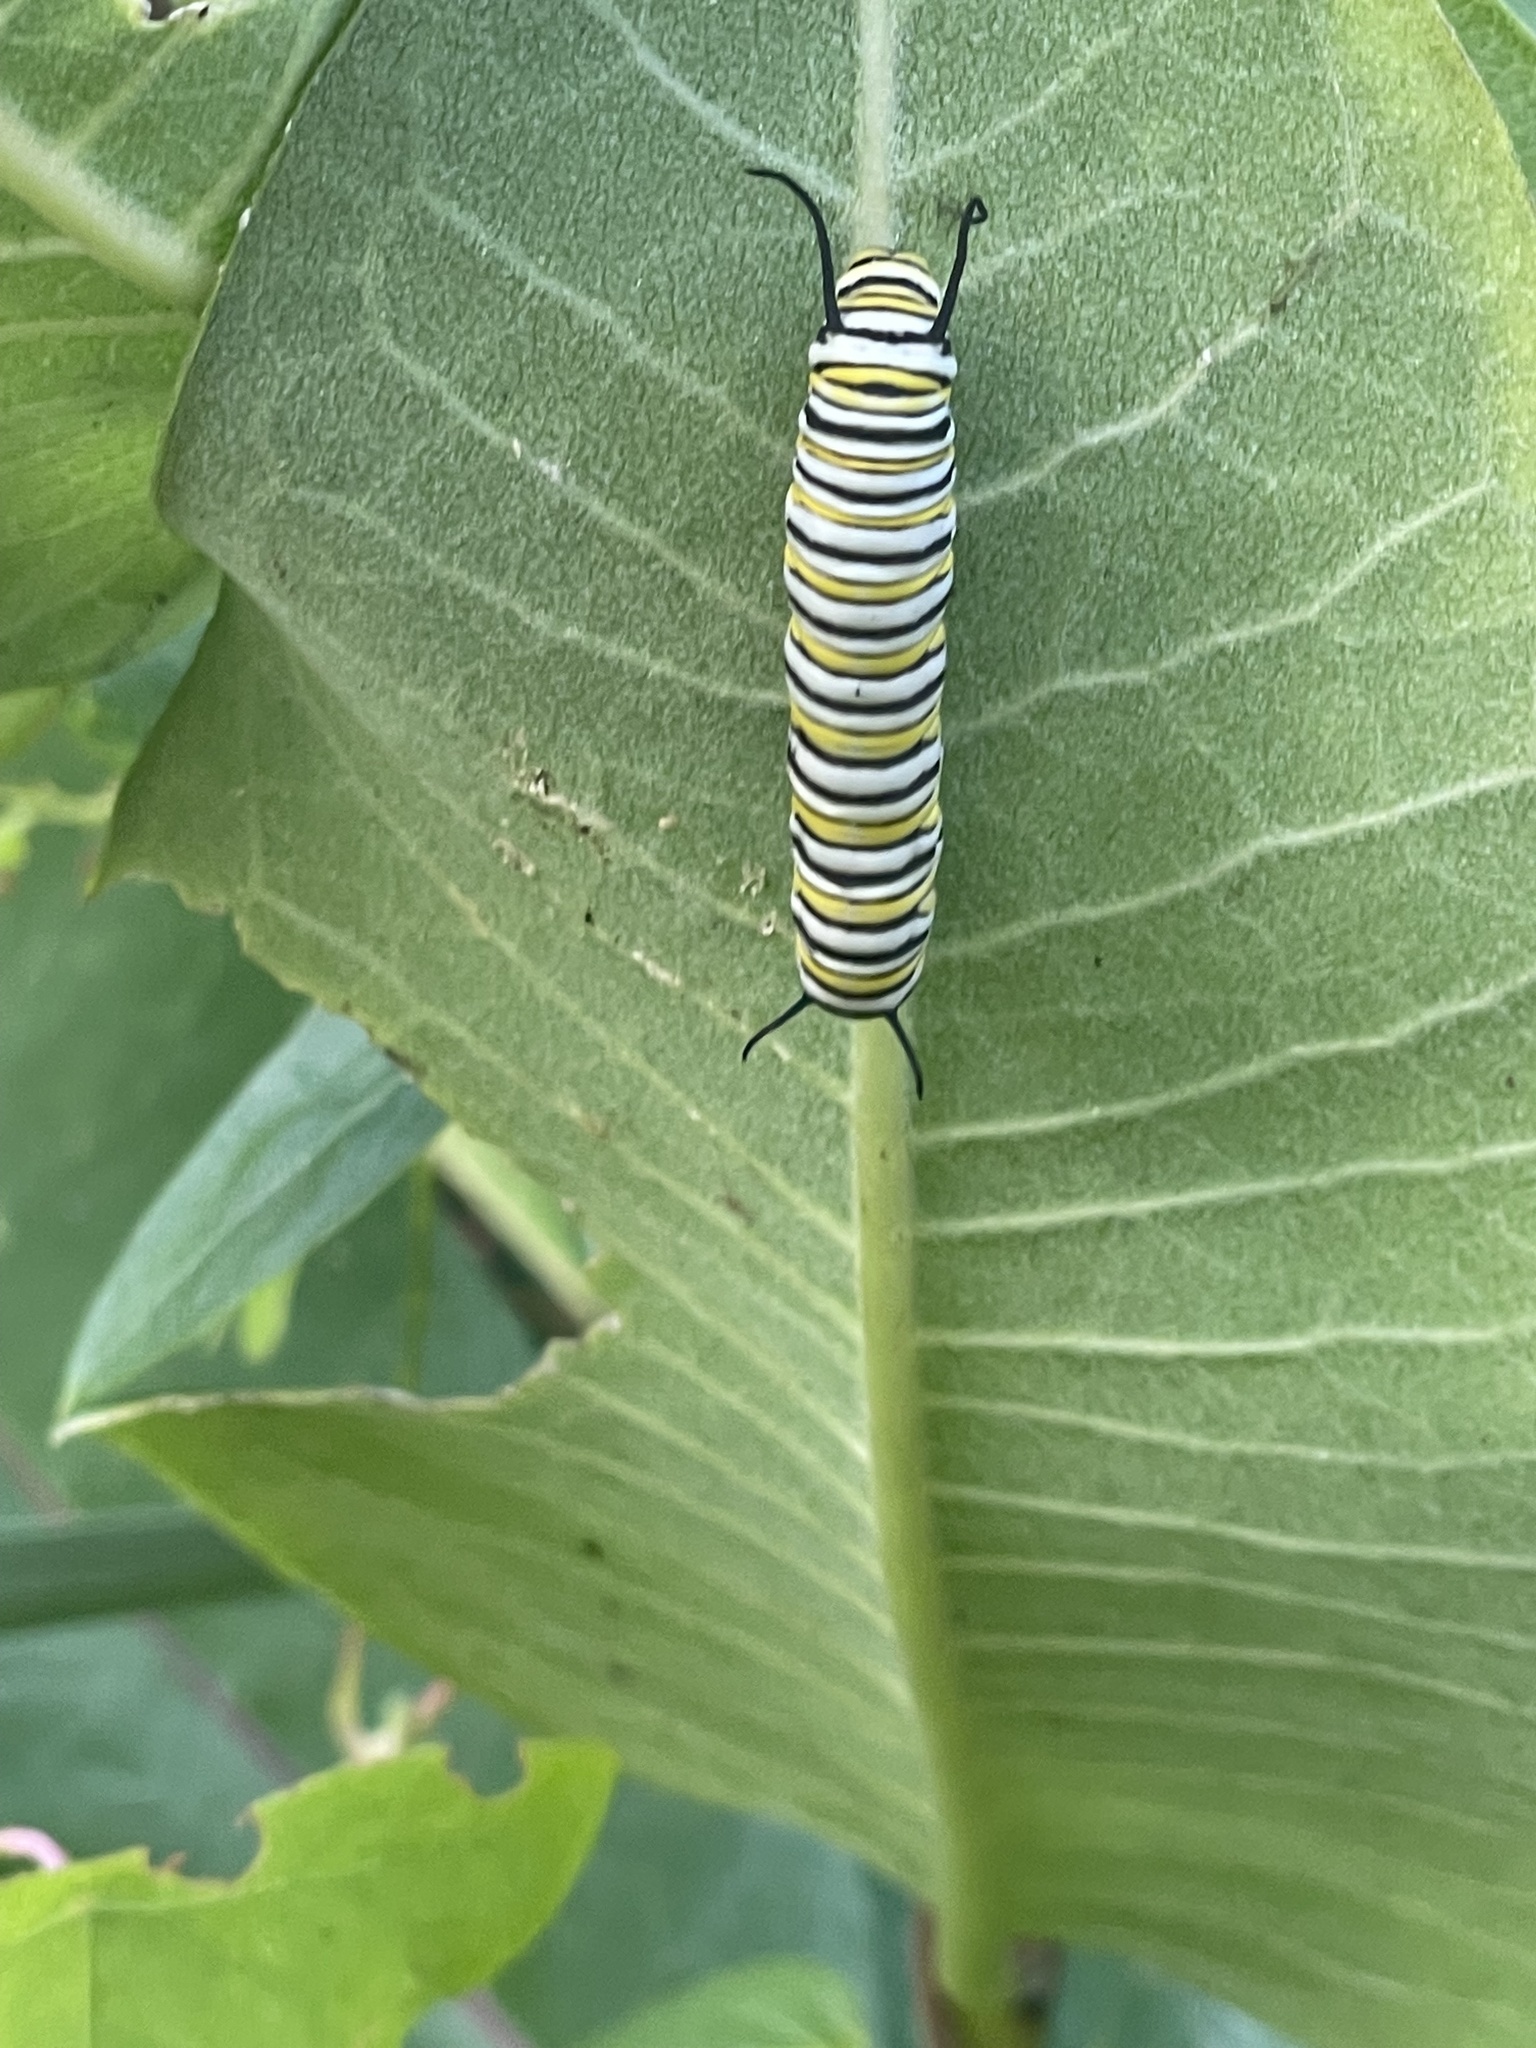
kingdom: Animalia
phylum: Arthropoda
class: Insecta
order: Lepidoptera
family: Nymphalidae
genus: Danaus
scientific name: Danaus plexippus
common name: Monarch
